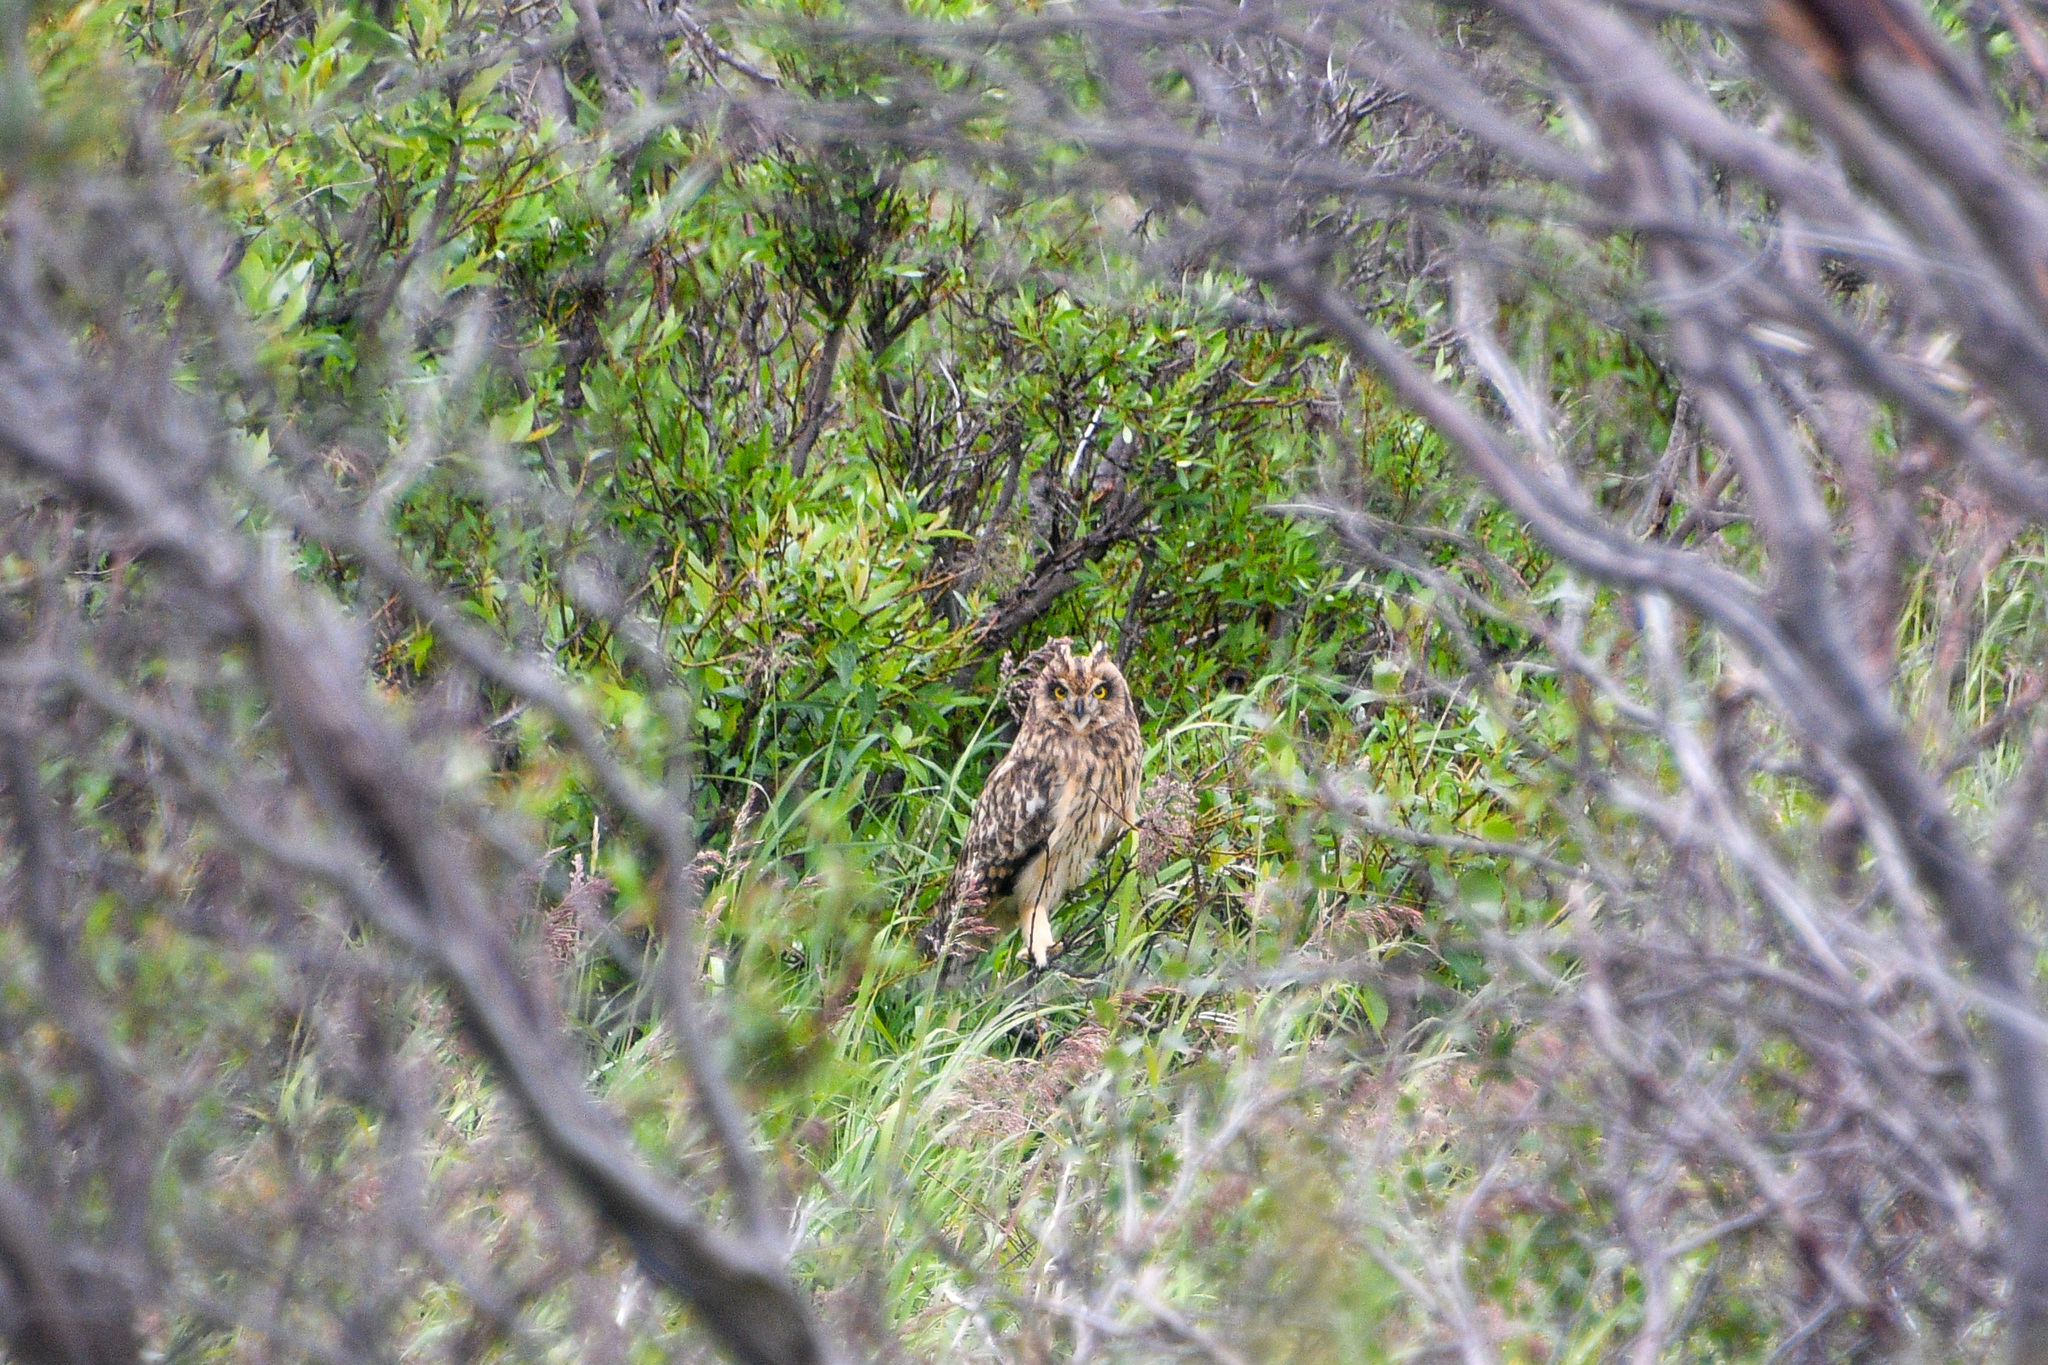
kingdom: Animalia
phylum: Chordata
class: Aves
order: Strigiformes
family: Strigidae
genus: Asio
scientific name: Asio flammeus
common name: Short-eared owl
